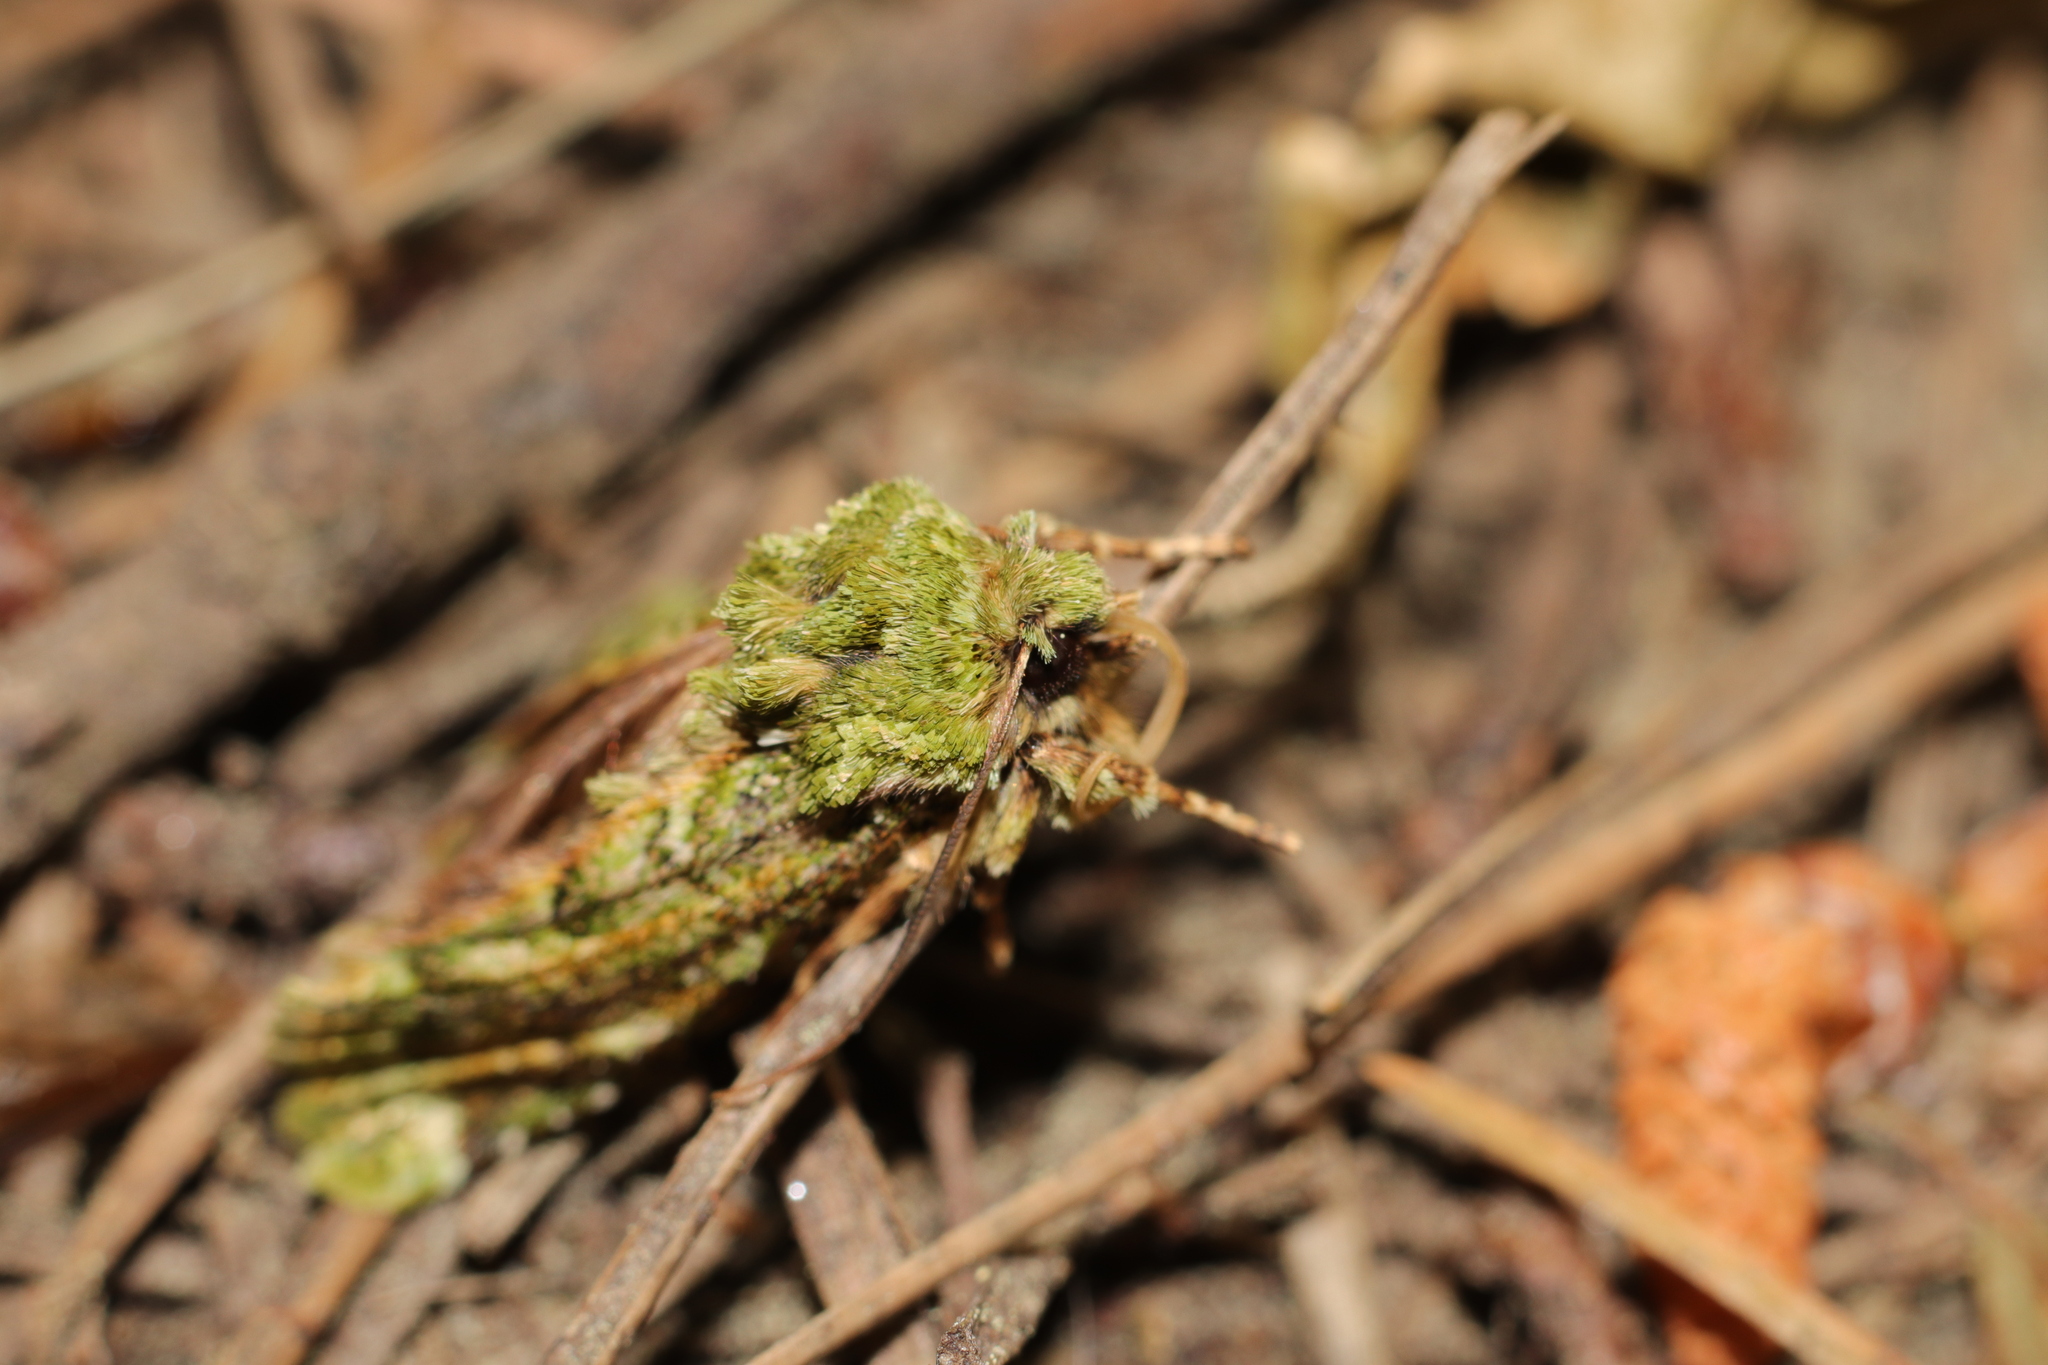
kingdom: Animalia
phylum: Arthropoda
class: Insecta
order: Lepidoptera
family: Noctuidae
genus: Feredayia
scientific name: Feredayia grammosa
